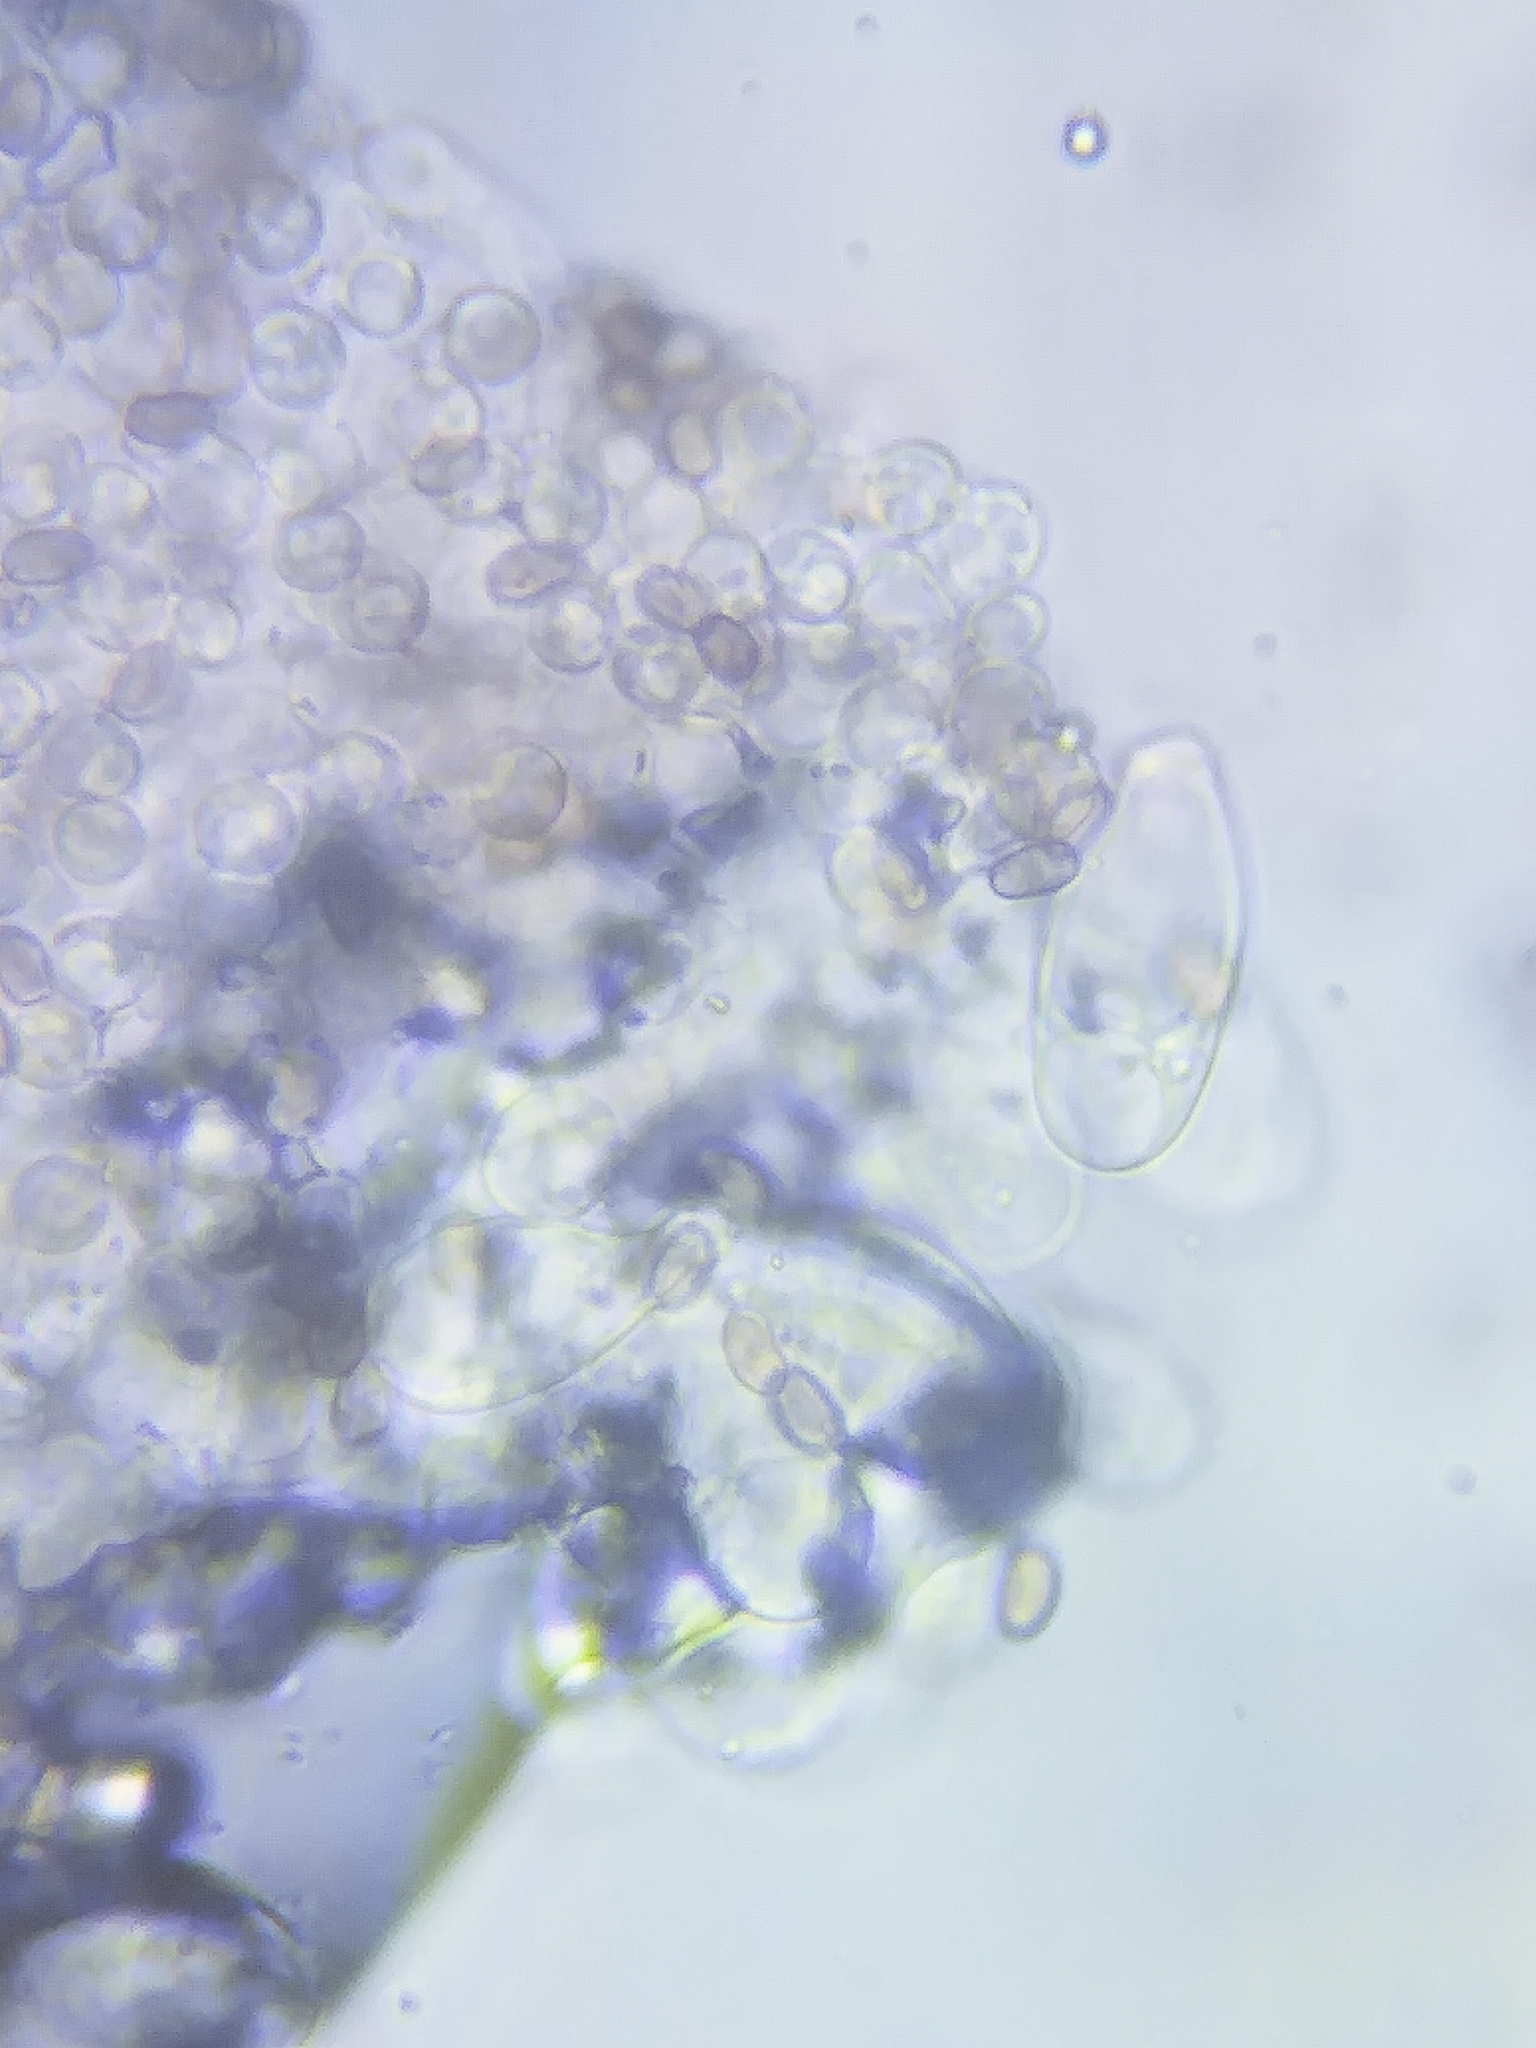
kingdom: Fungi
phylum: Basidiomycota
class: Agaricomycetes
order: Agaricales
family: Psathyrellaceae
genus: Candolleomyces
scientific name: Candolleomyces candolleanus
